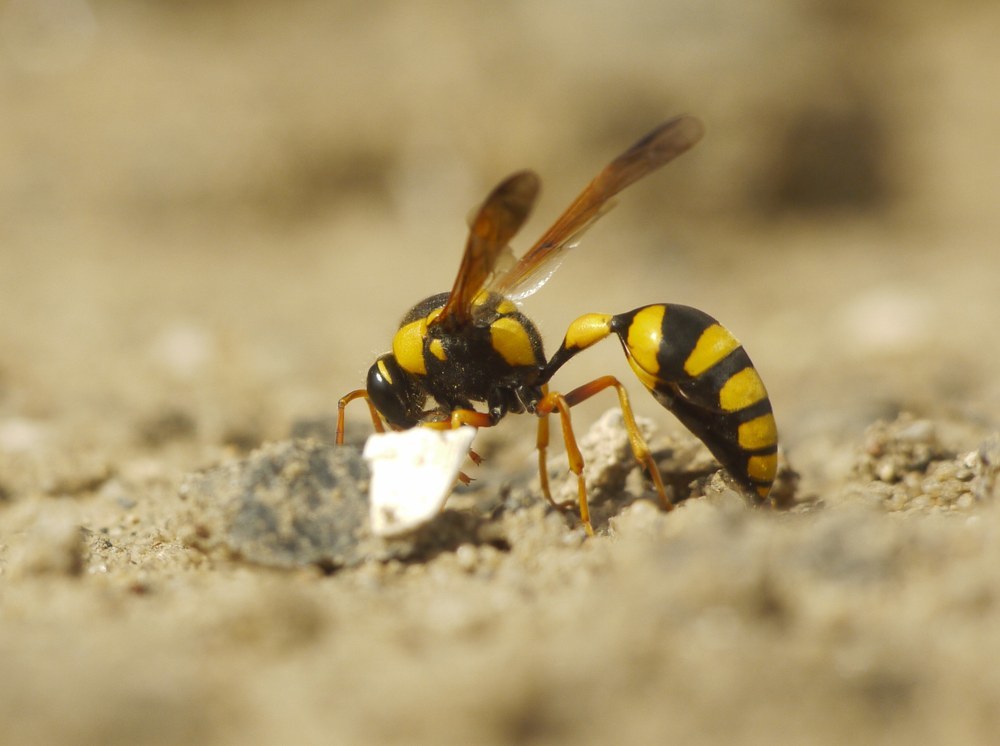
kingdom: Animalia
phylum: Arthropoda
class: Insecta
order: Hymenoptera
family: Eumenidae
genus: Katamenes
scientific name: Katamenes dimidiatus
